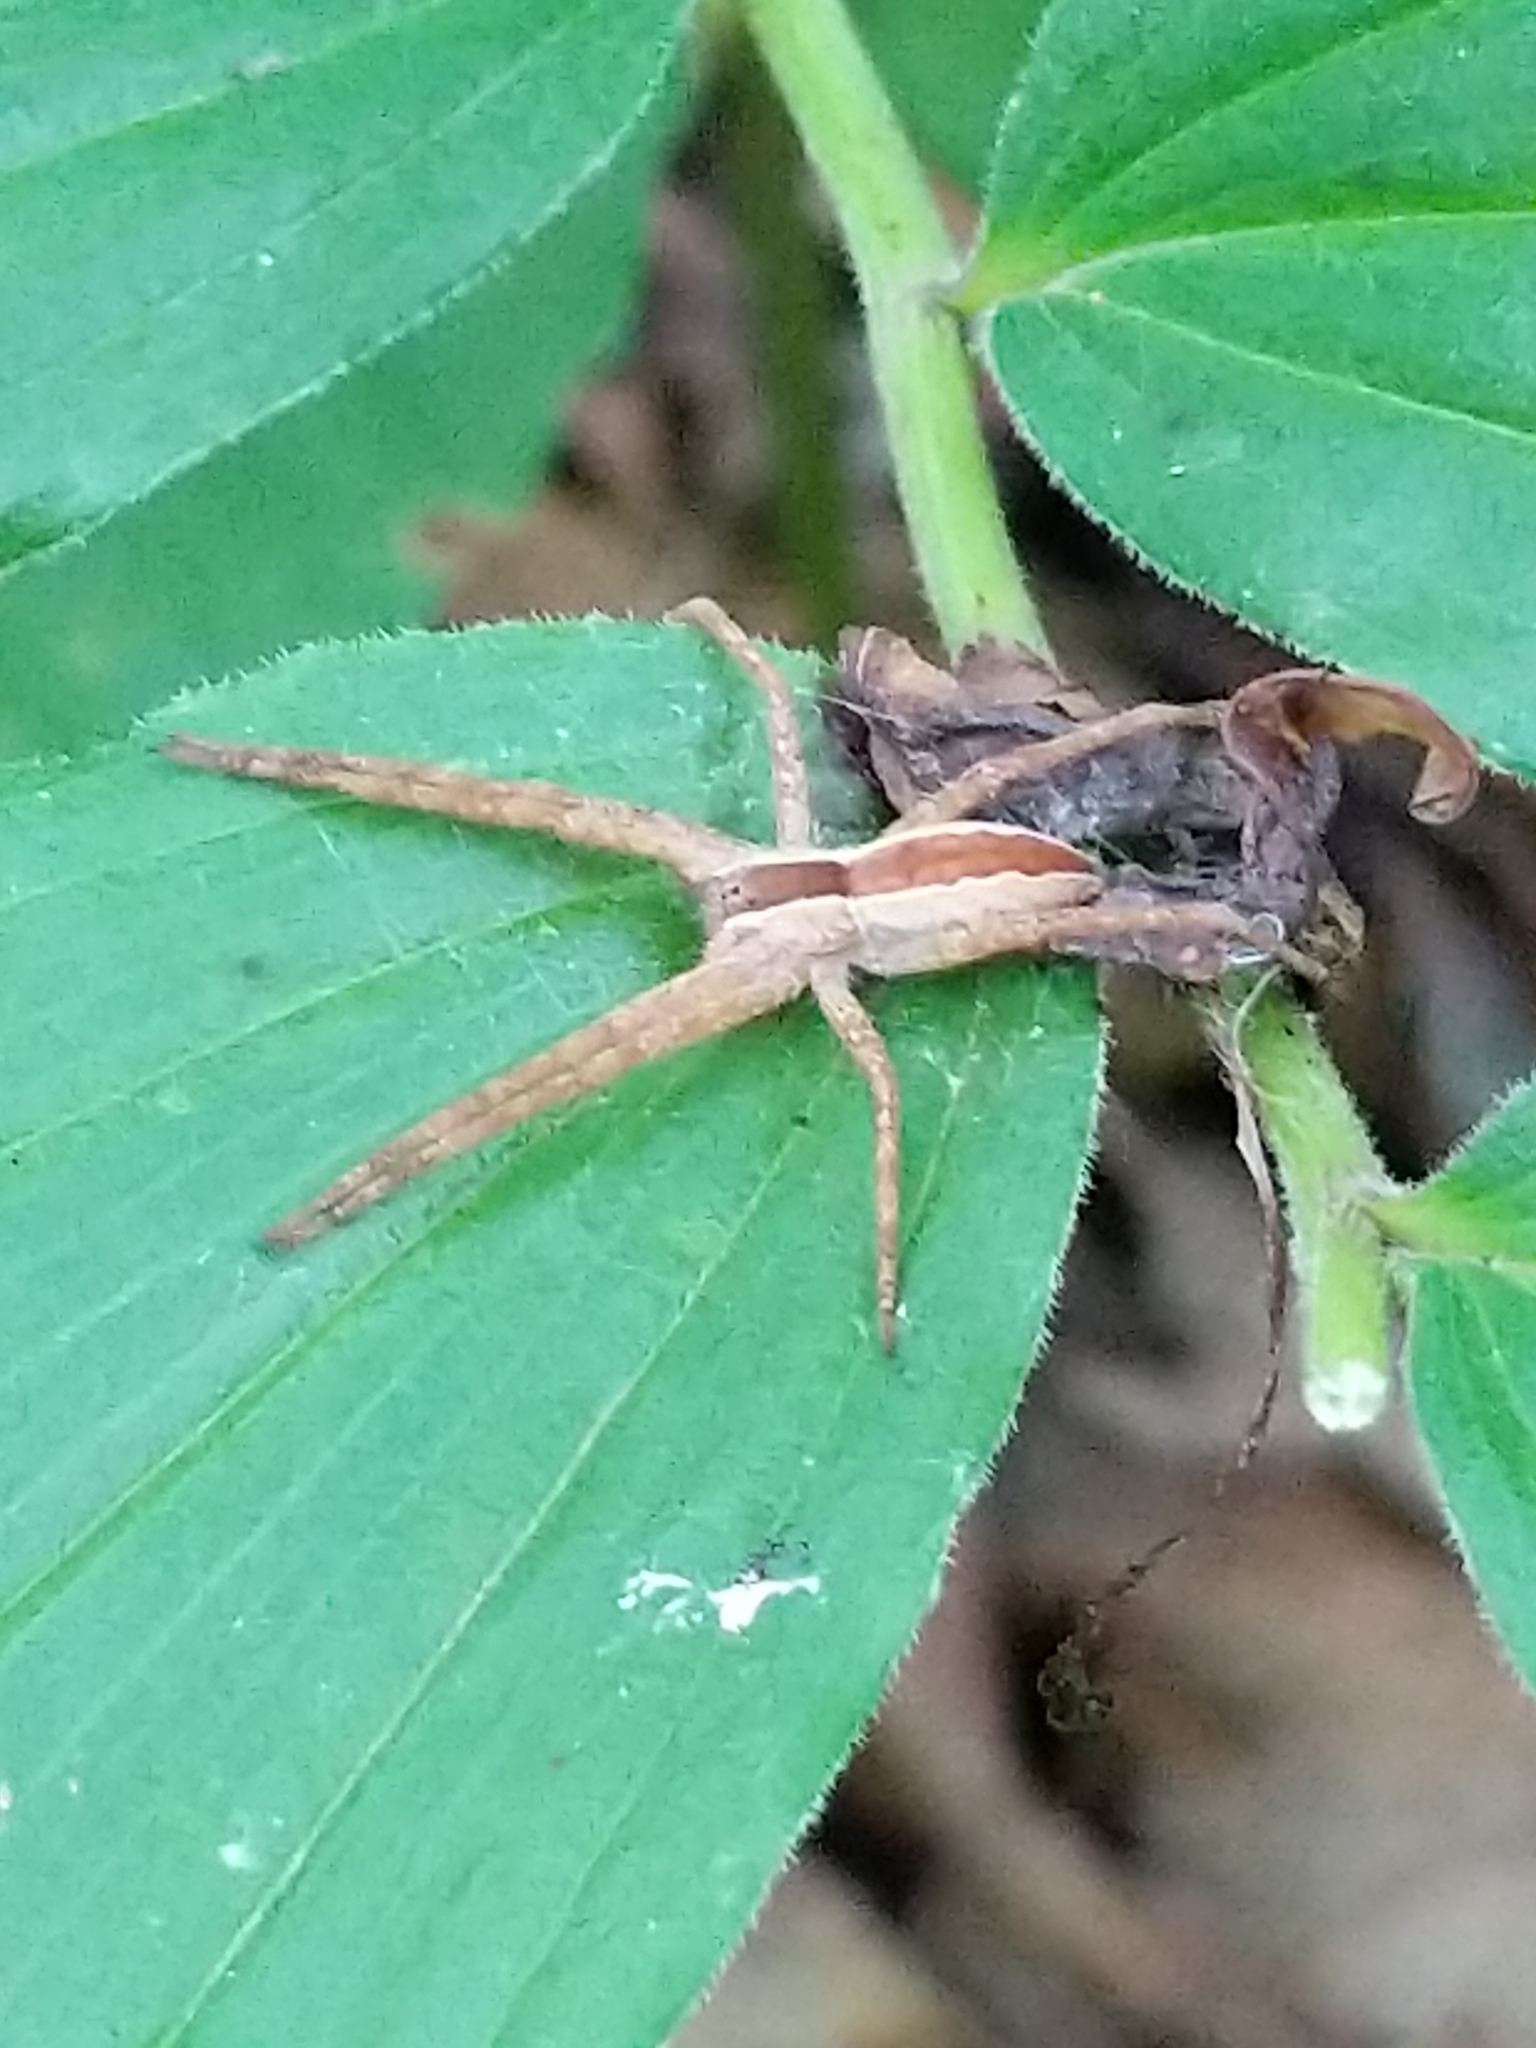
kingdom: Animalia
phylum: Arthropoda
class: Arachnida
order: Araneae
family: Pisauridae
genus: Pisaurina
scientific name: Pisaurina mira
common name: American nursery web spider
